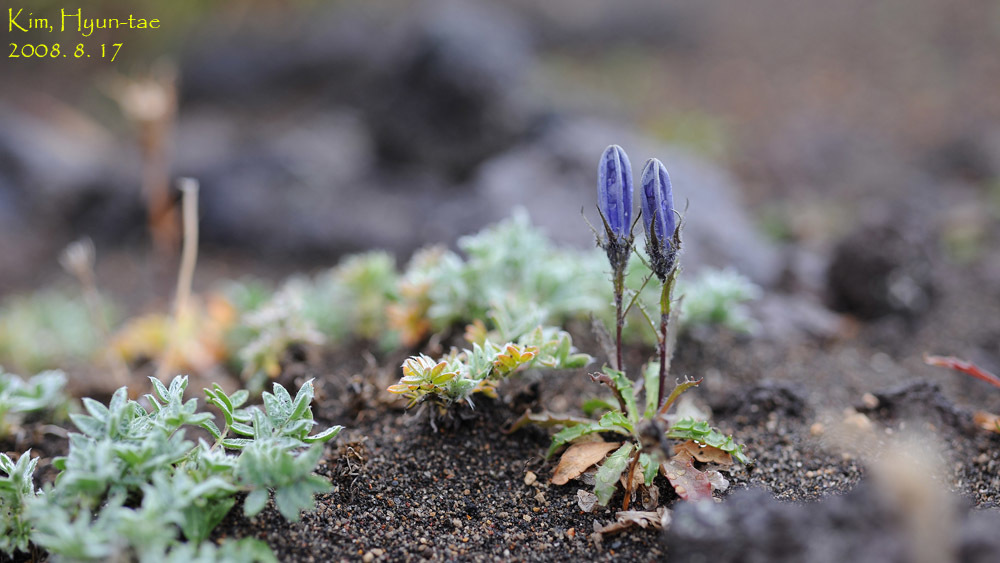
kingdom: Plantae
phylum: Tracheophyta
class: Magnoliopsida
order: Asterales
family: Campanulaceae
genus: Campanula
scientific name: Campanula lasiocarpa
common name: Mountain harebell
